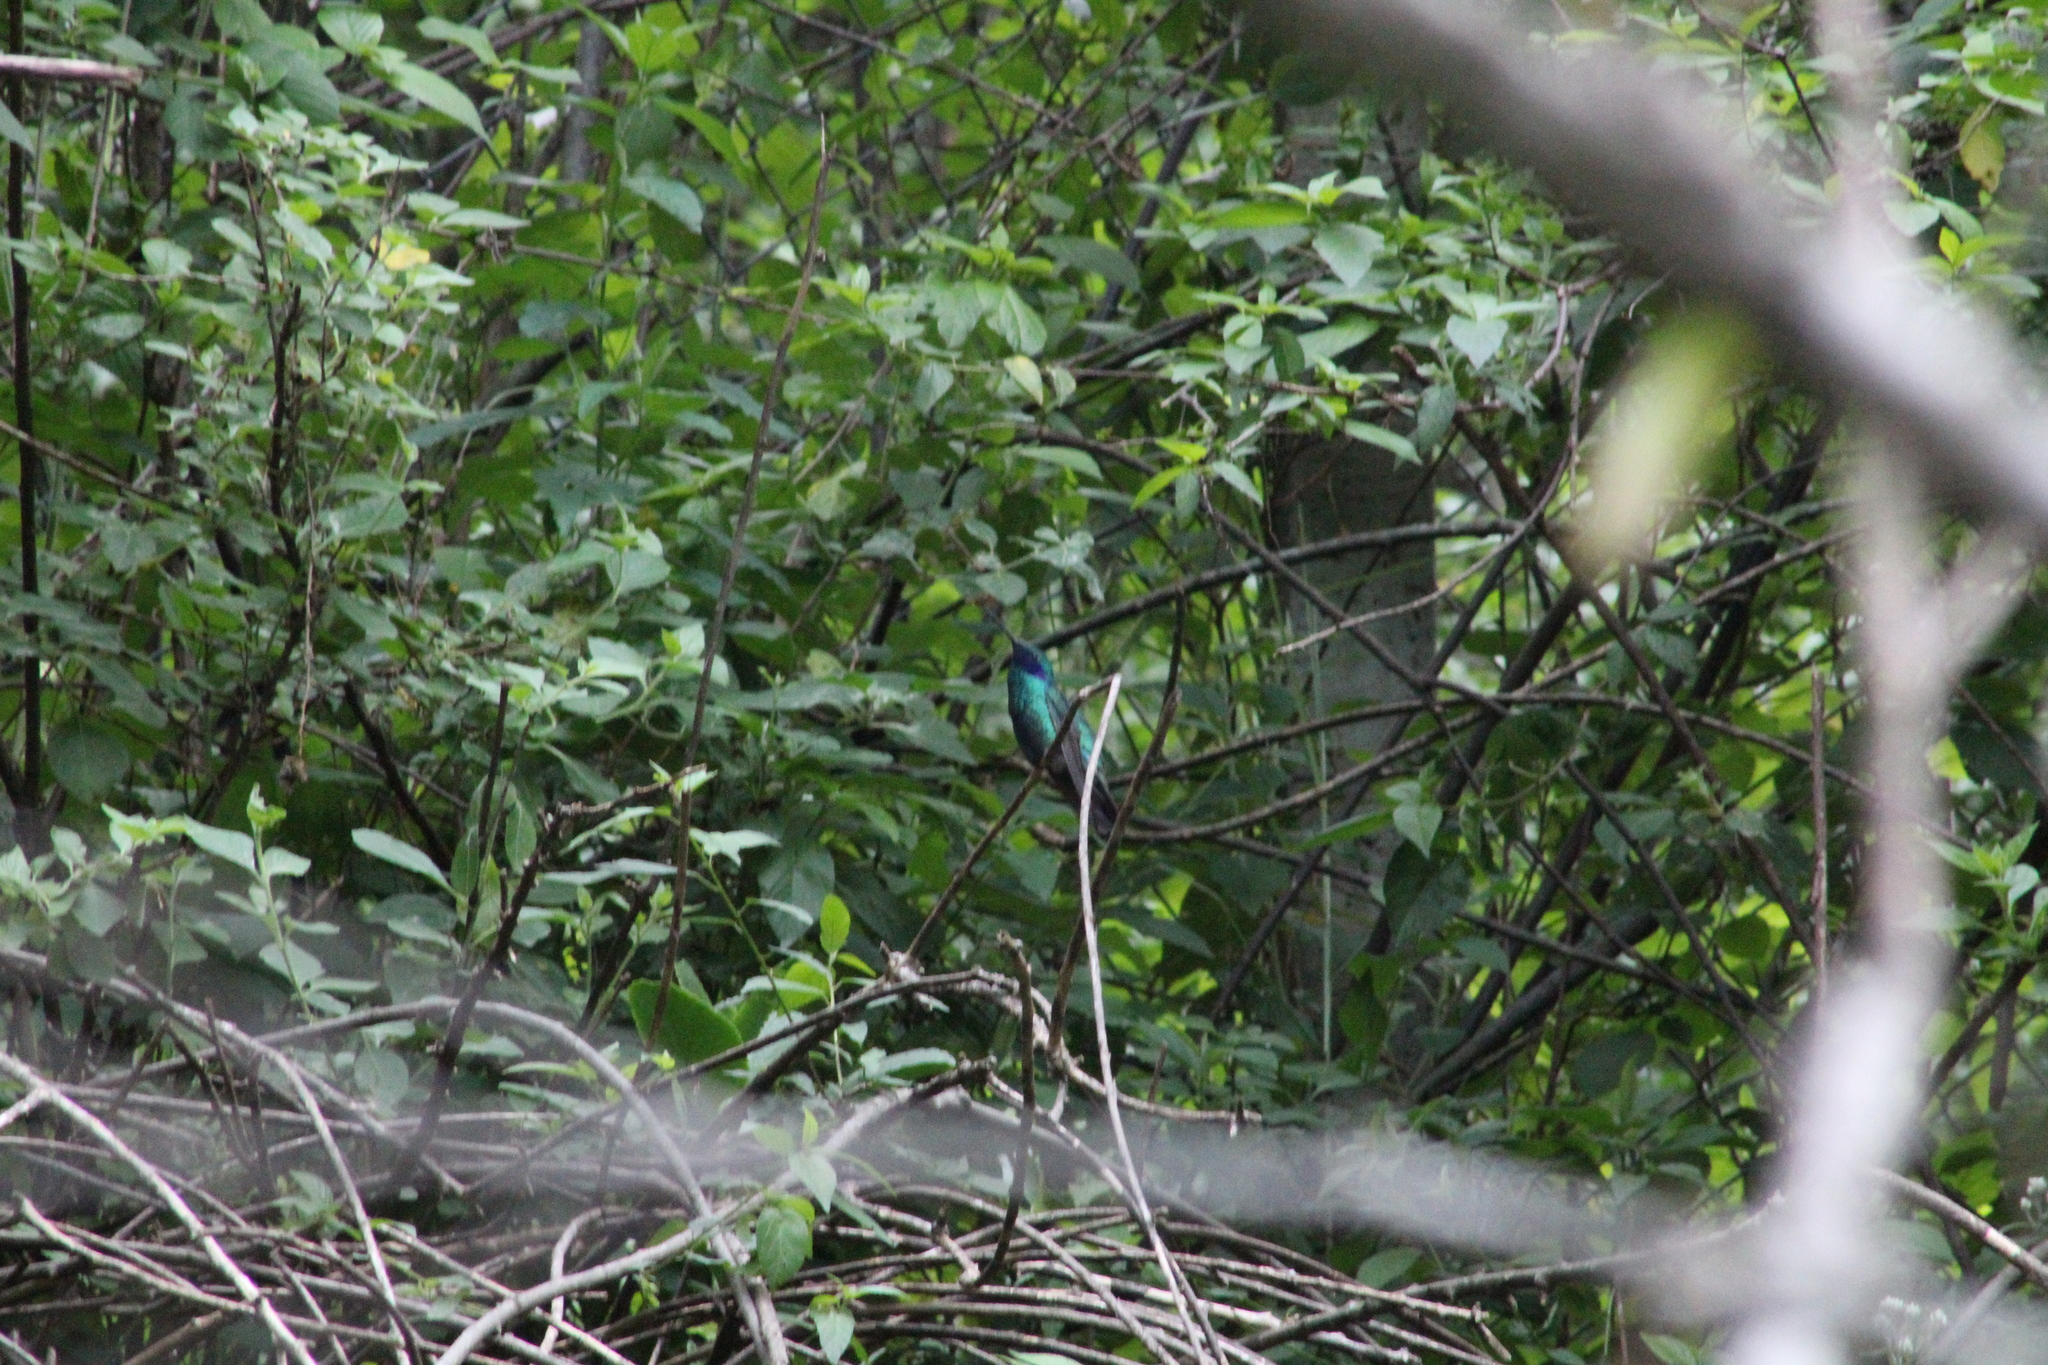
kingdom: Animalia
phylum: Chordata
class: Aves
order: Apodiformes
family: Trochilidae
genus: Colibri
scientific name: Colibri coruscans
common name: Sparkling violetear
